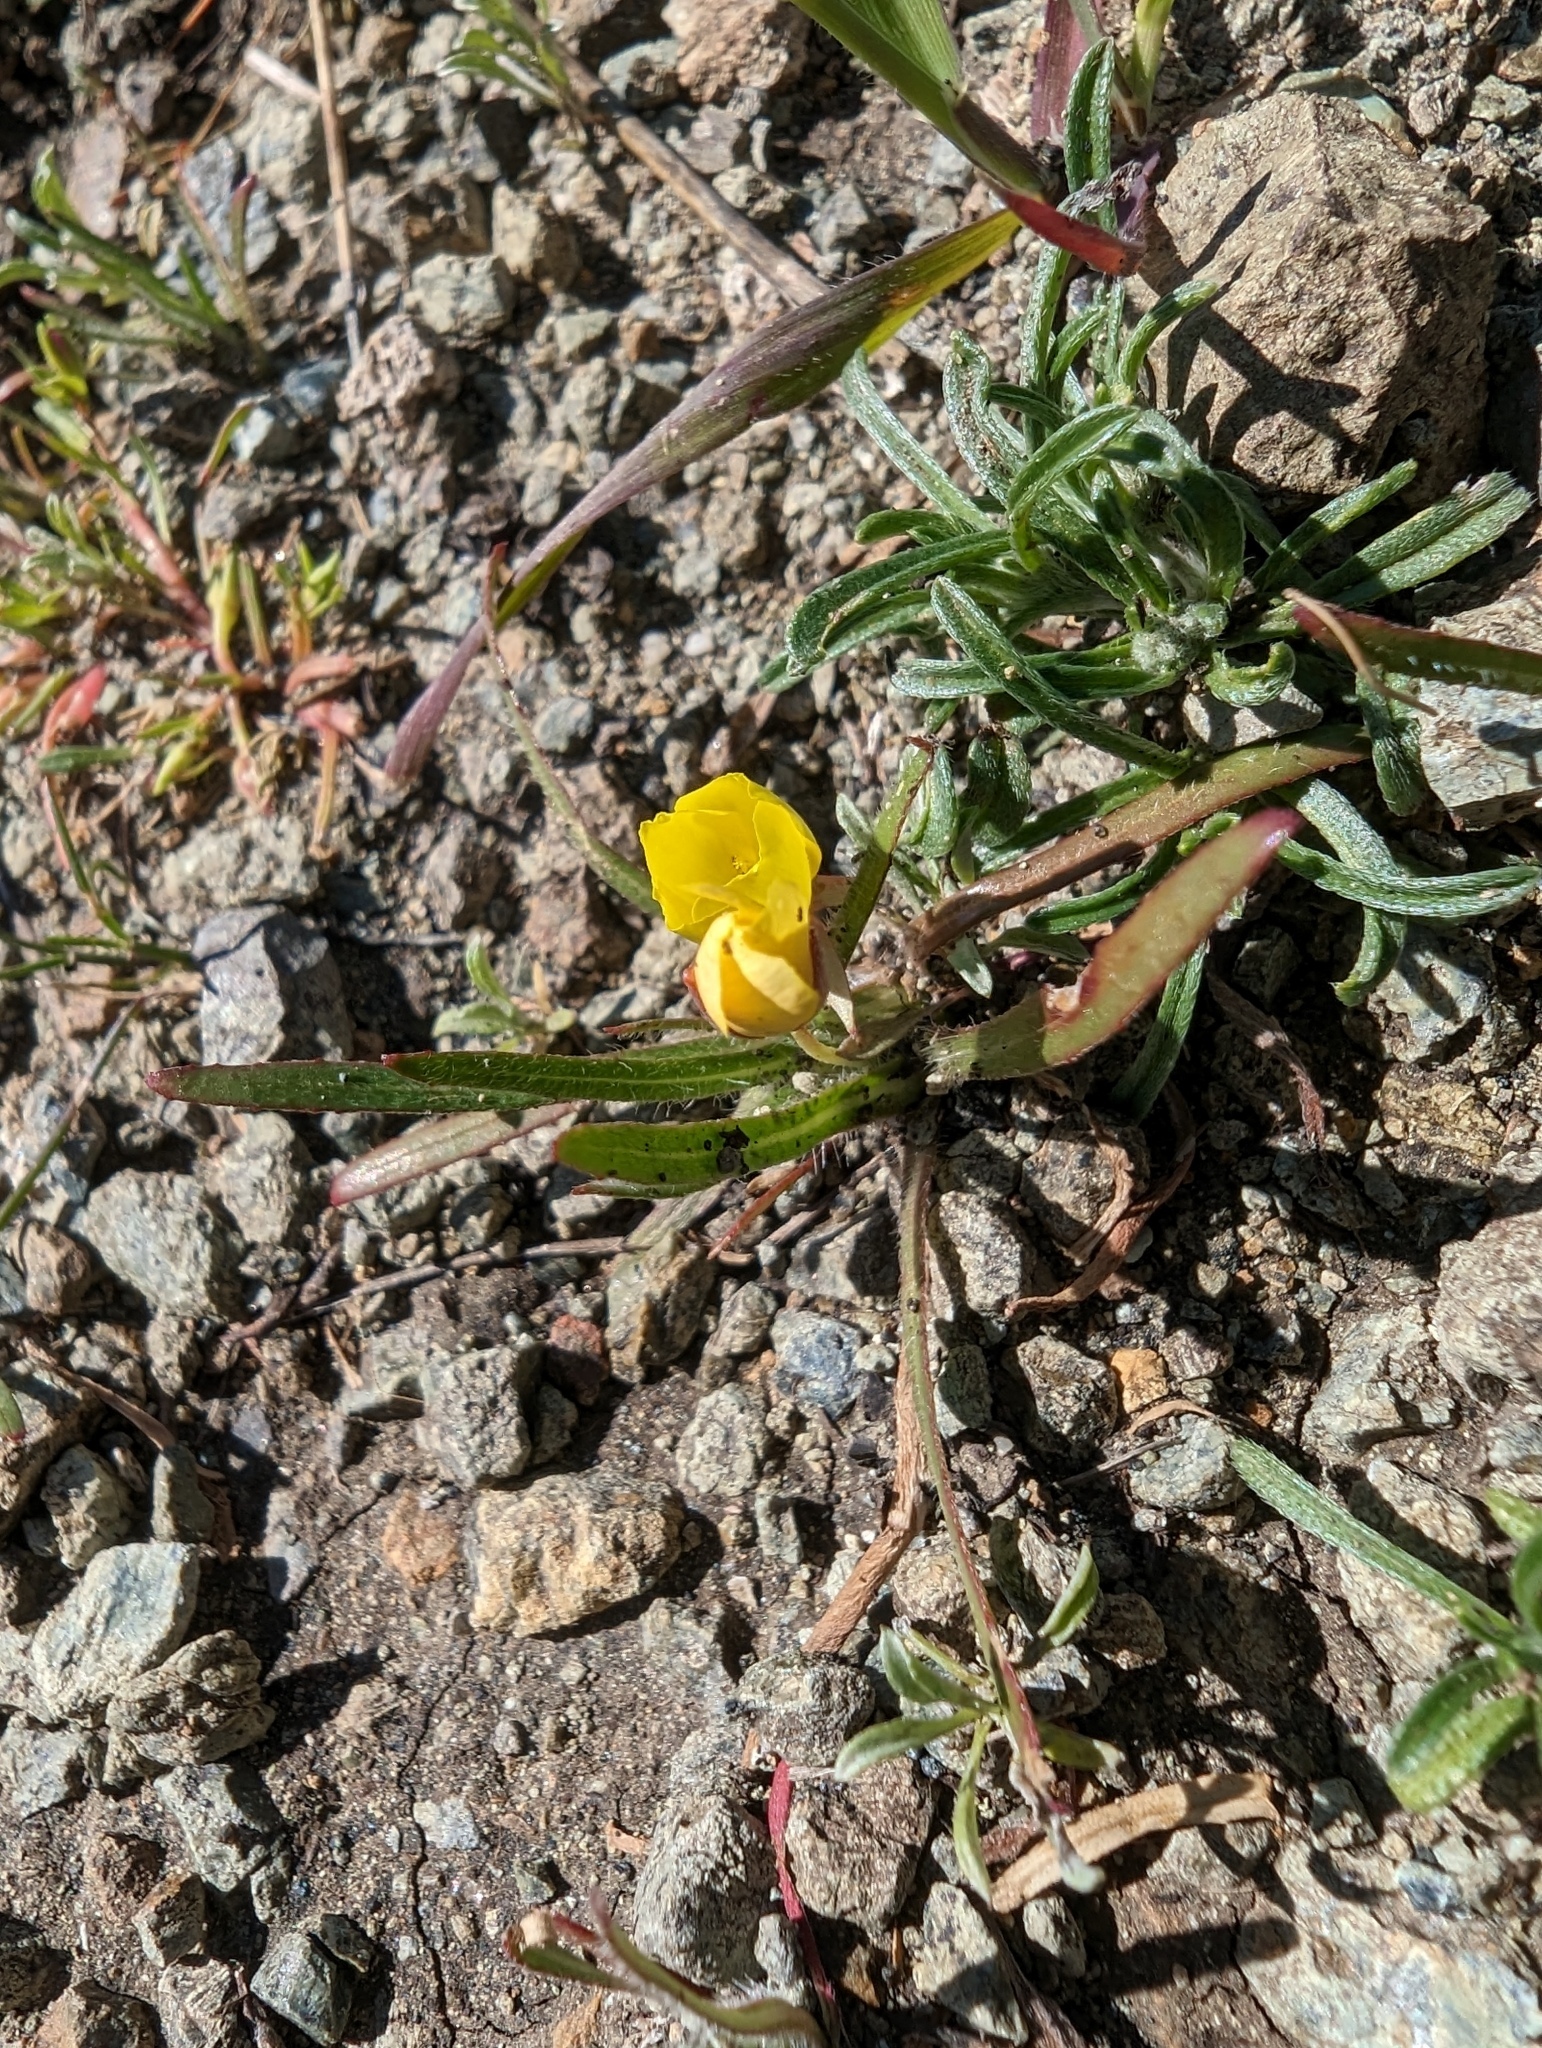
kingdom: Plantae
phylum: Tracheophyta
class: Magnoliopsida
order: Myrtales
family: Onagraceae
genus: Tetrapteron
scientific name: Tetrapteron graciliflorum
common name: Hill suncup
